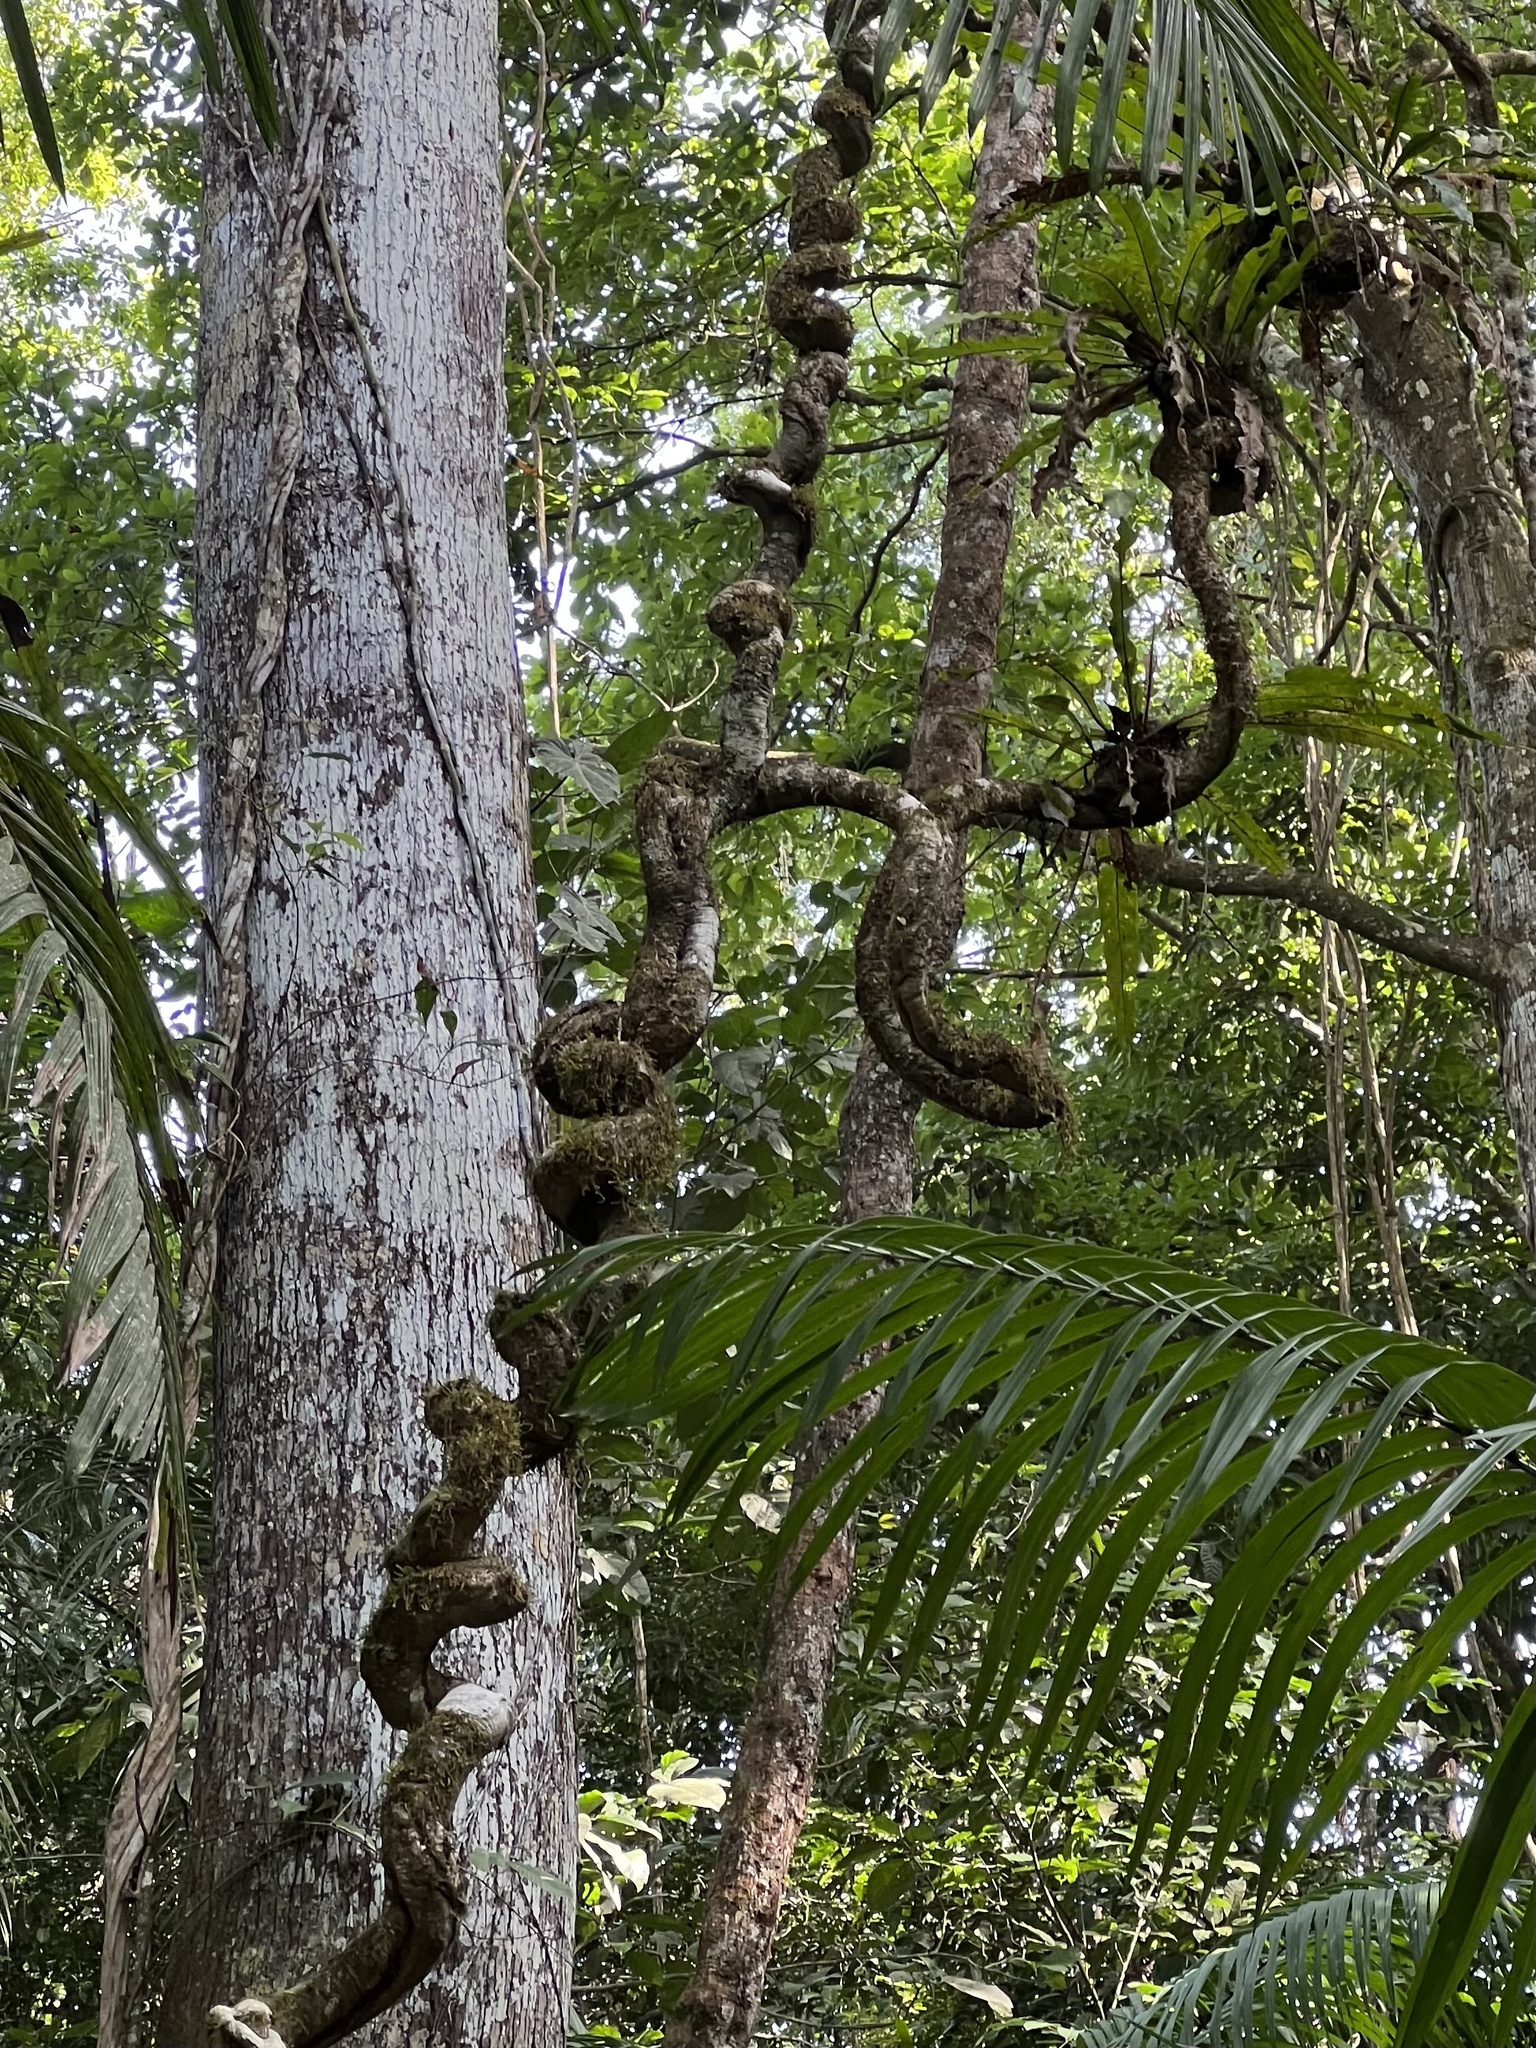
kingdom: Plantae
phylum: Tracheophyta
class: Magnoliopsida
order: Fabales
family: Fabaceae
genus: Bauhinia
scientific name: Bauhinia ungulata
